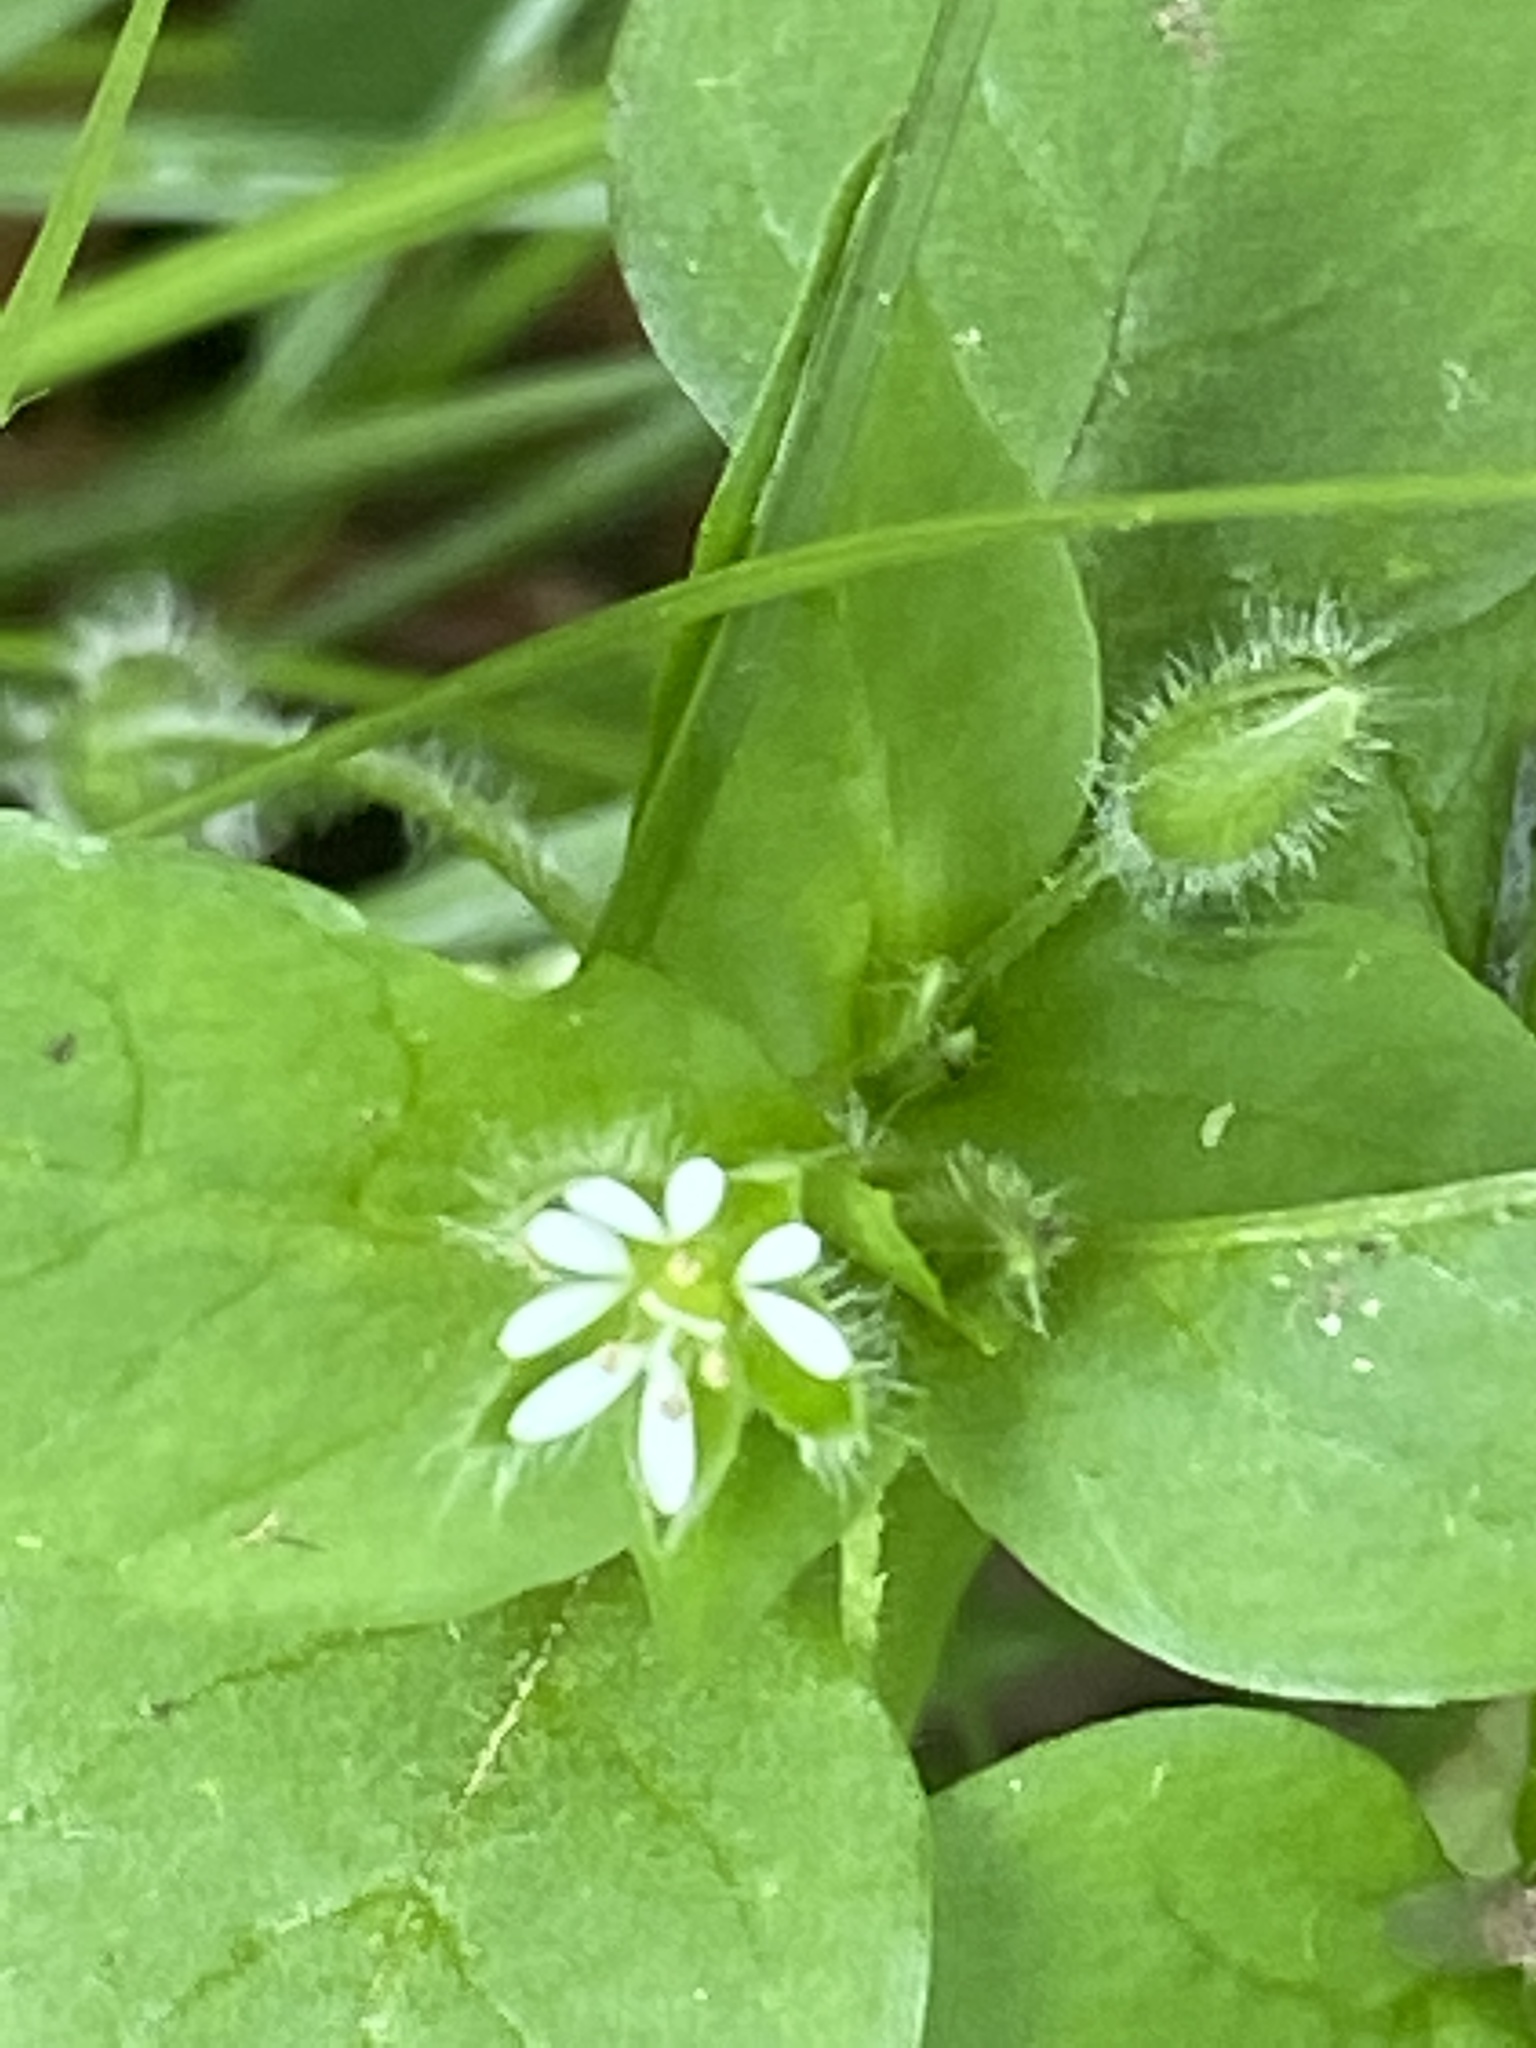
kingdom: Plantae
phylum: Tracheophyta
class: Magnoliopsida
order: Caryophyllales
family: Caryophyllaceae
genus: Stellaria
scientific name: Stellaria media
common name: Common chickweed
